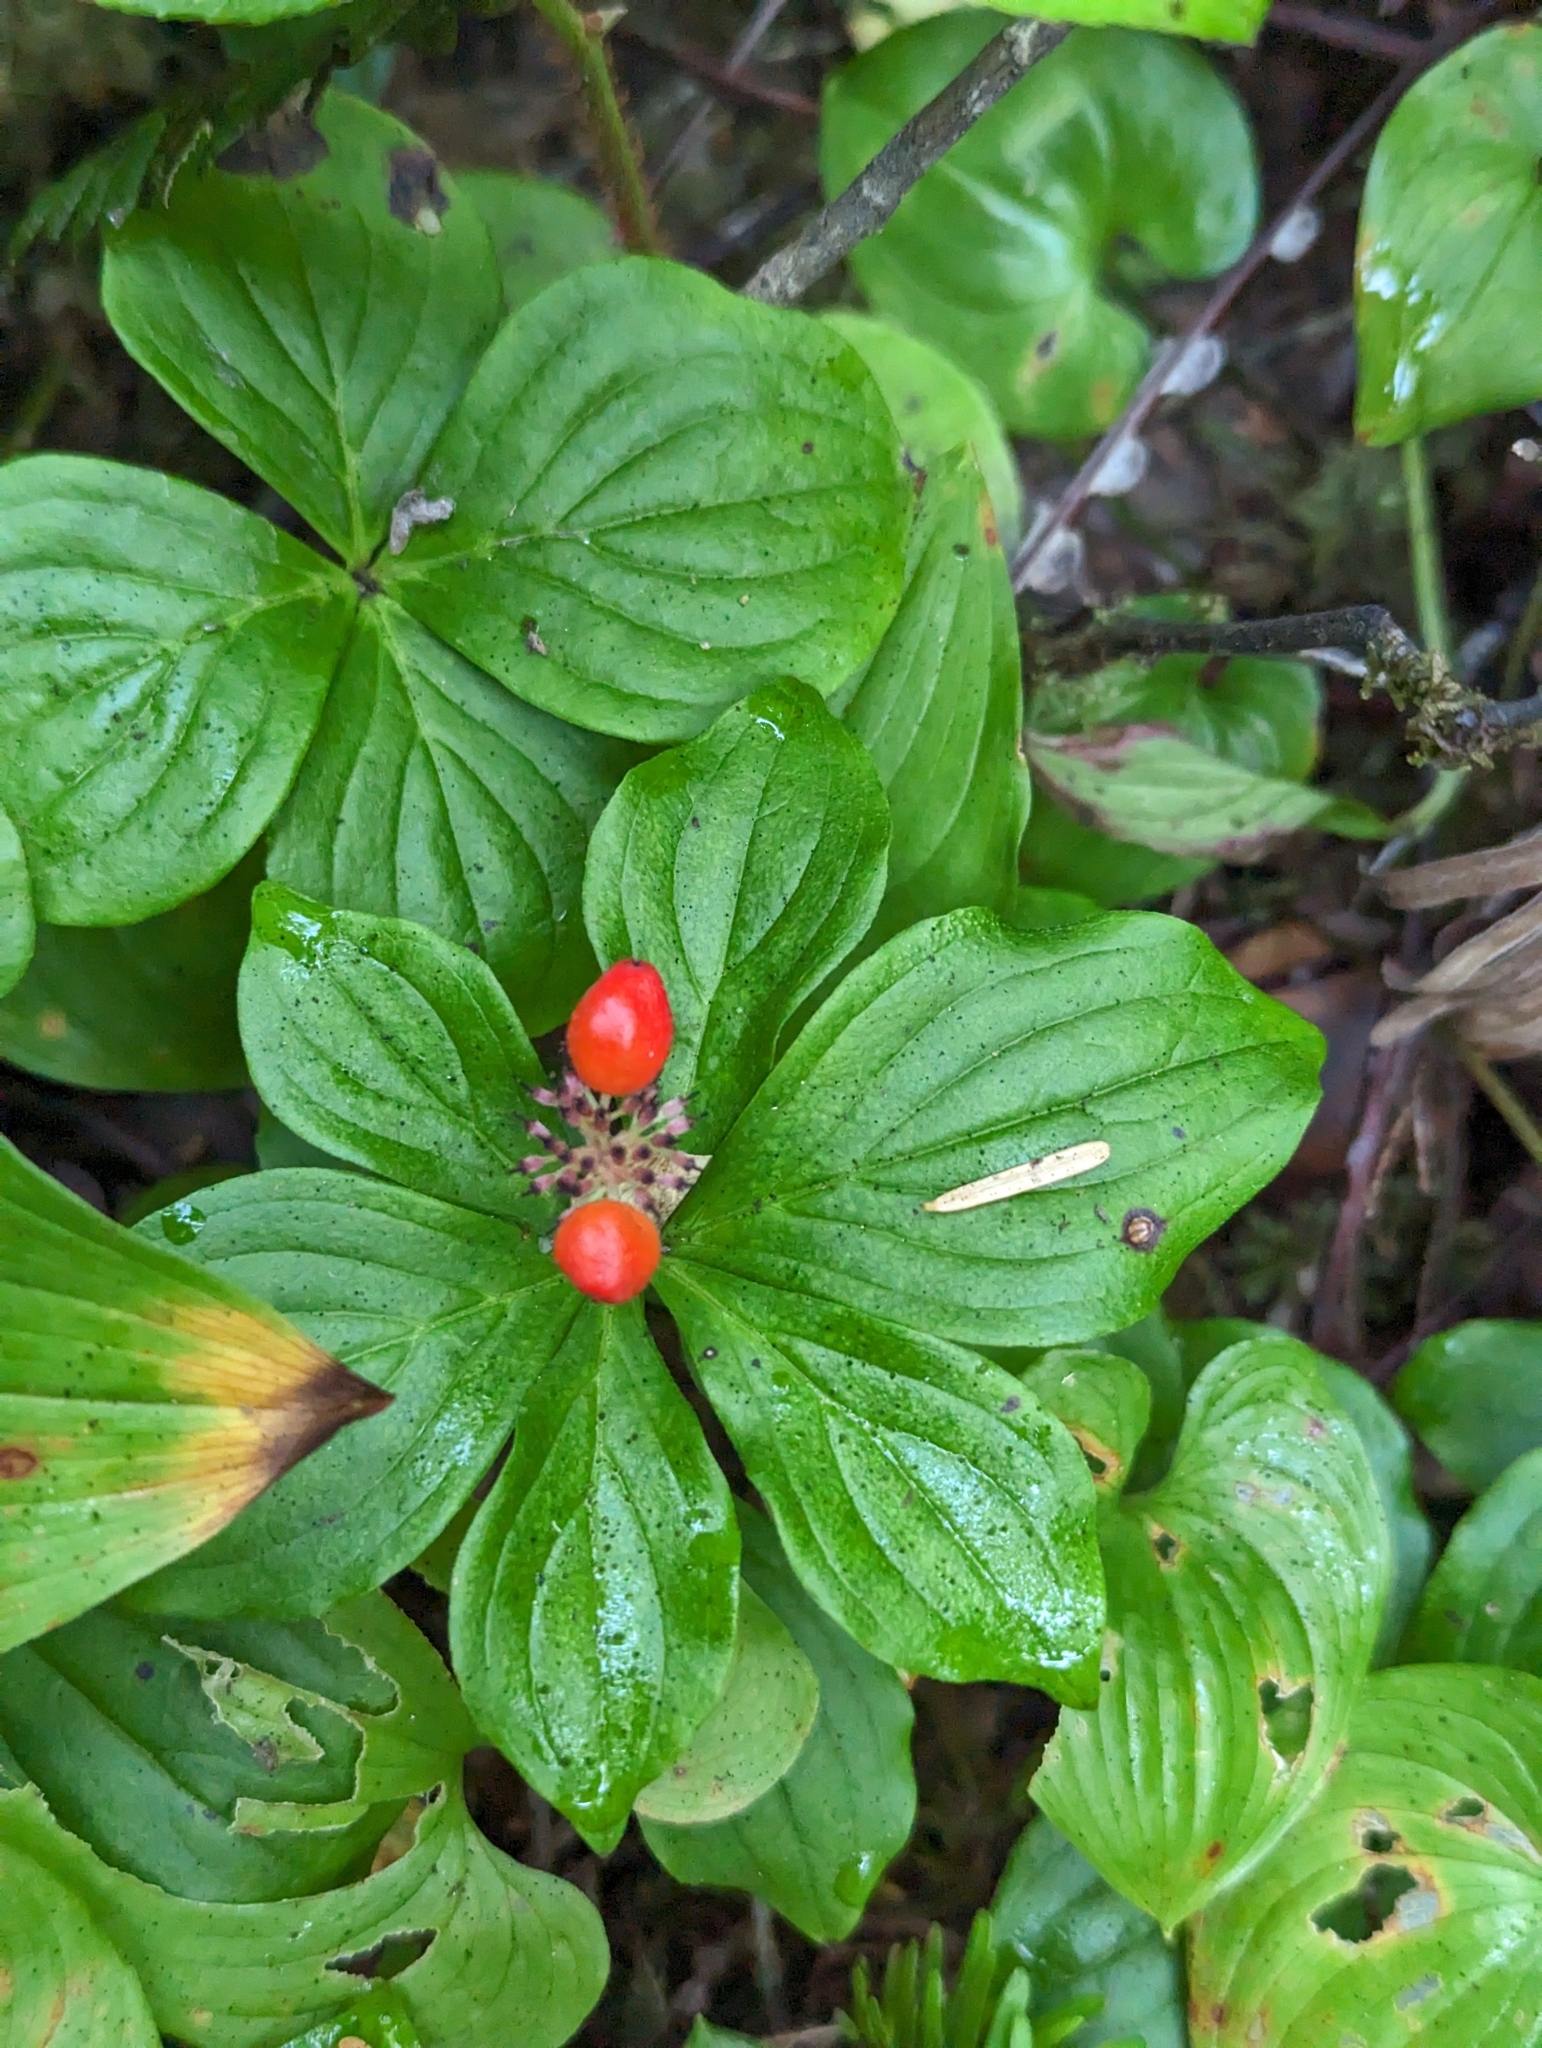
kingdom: Plantae
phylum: Tracheophyta
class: Magnoliopsida
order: Cornales
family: Cornaceae
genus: Cornus
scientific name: Cornus unalaschkensis
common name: Alaska bunchberry
